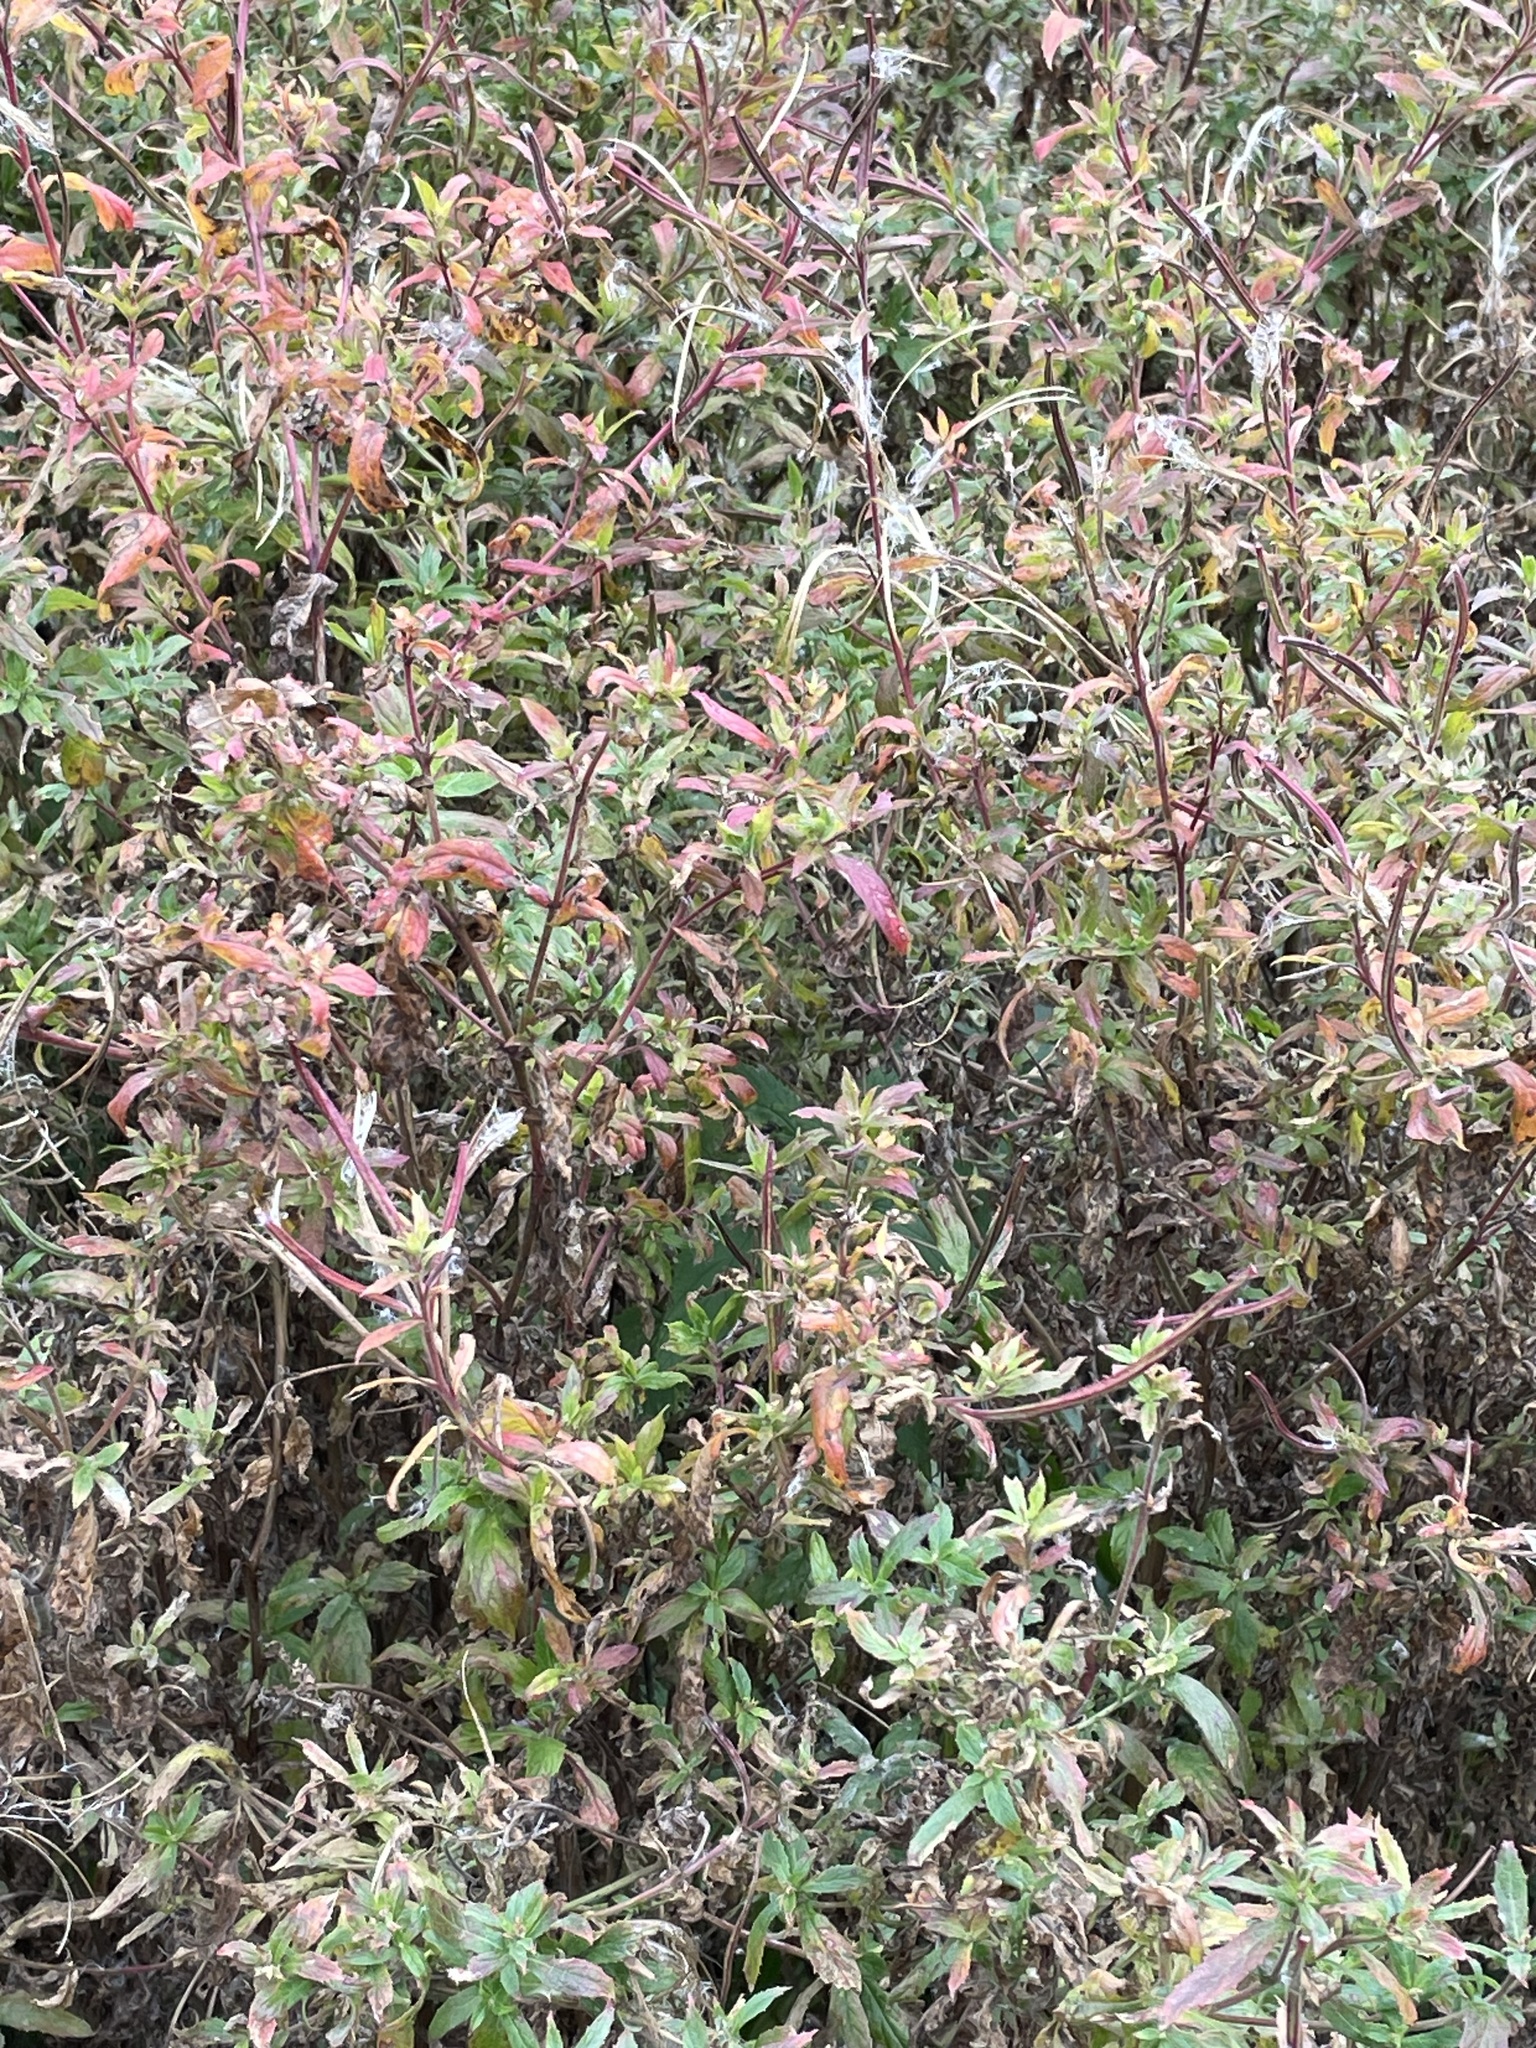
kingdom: Plantae
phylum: Tracheophyta
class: Magnoliopsida
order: Myrtales
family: Onagraceae
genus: Epilobium
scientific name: Epilobium hirsutum
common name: Great willowherb
